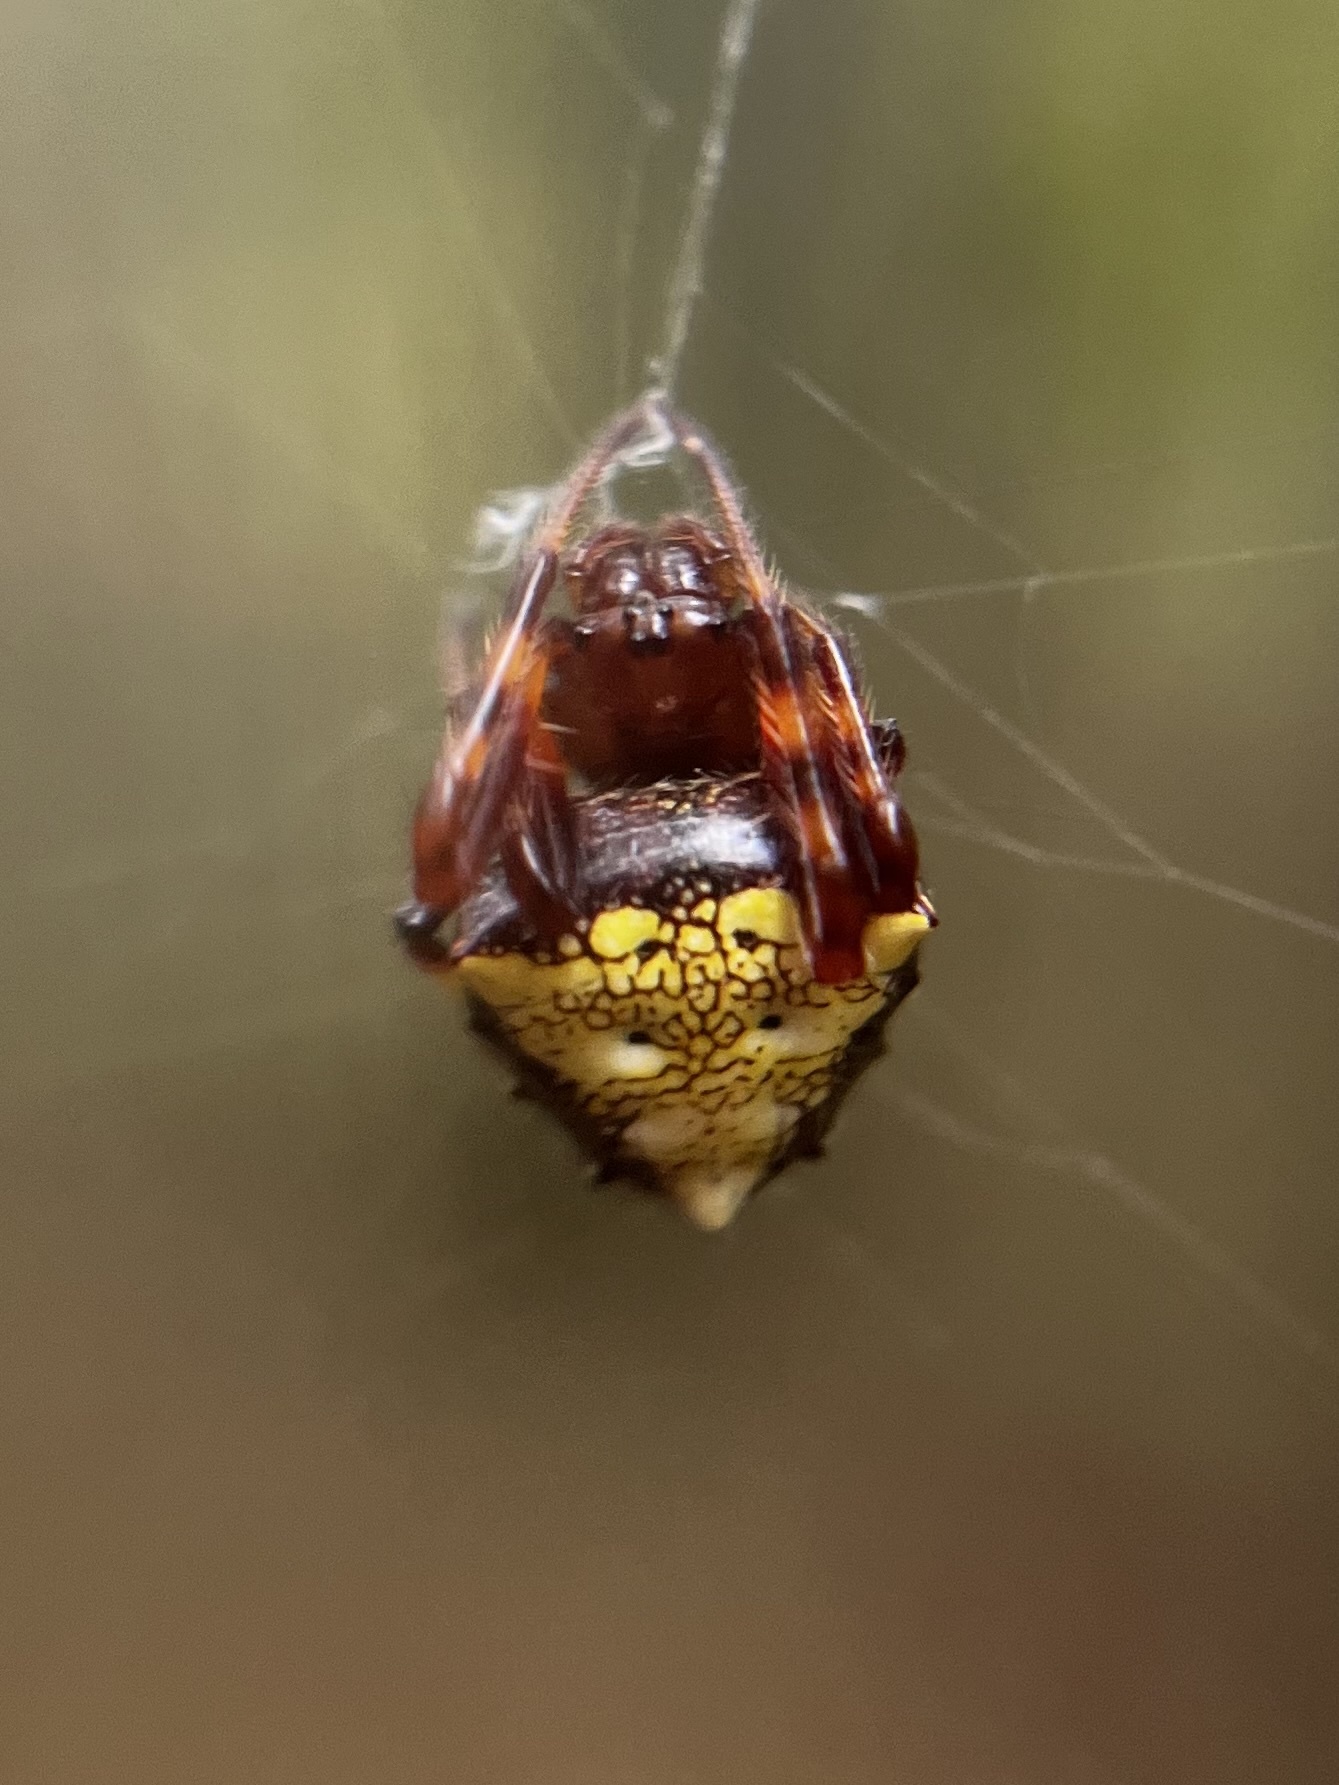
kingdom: Animalia
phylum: Arthropoda
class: Arachnida
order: Araneae
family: Araneidae
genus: Verrucosa
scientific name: Verrucosa arenata
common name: Orb weavers
